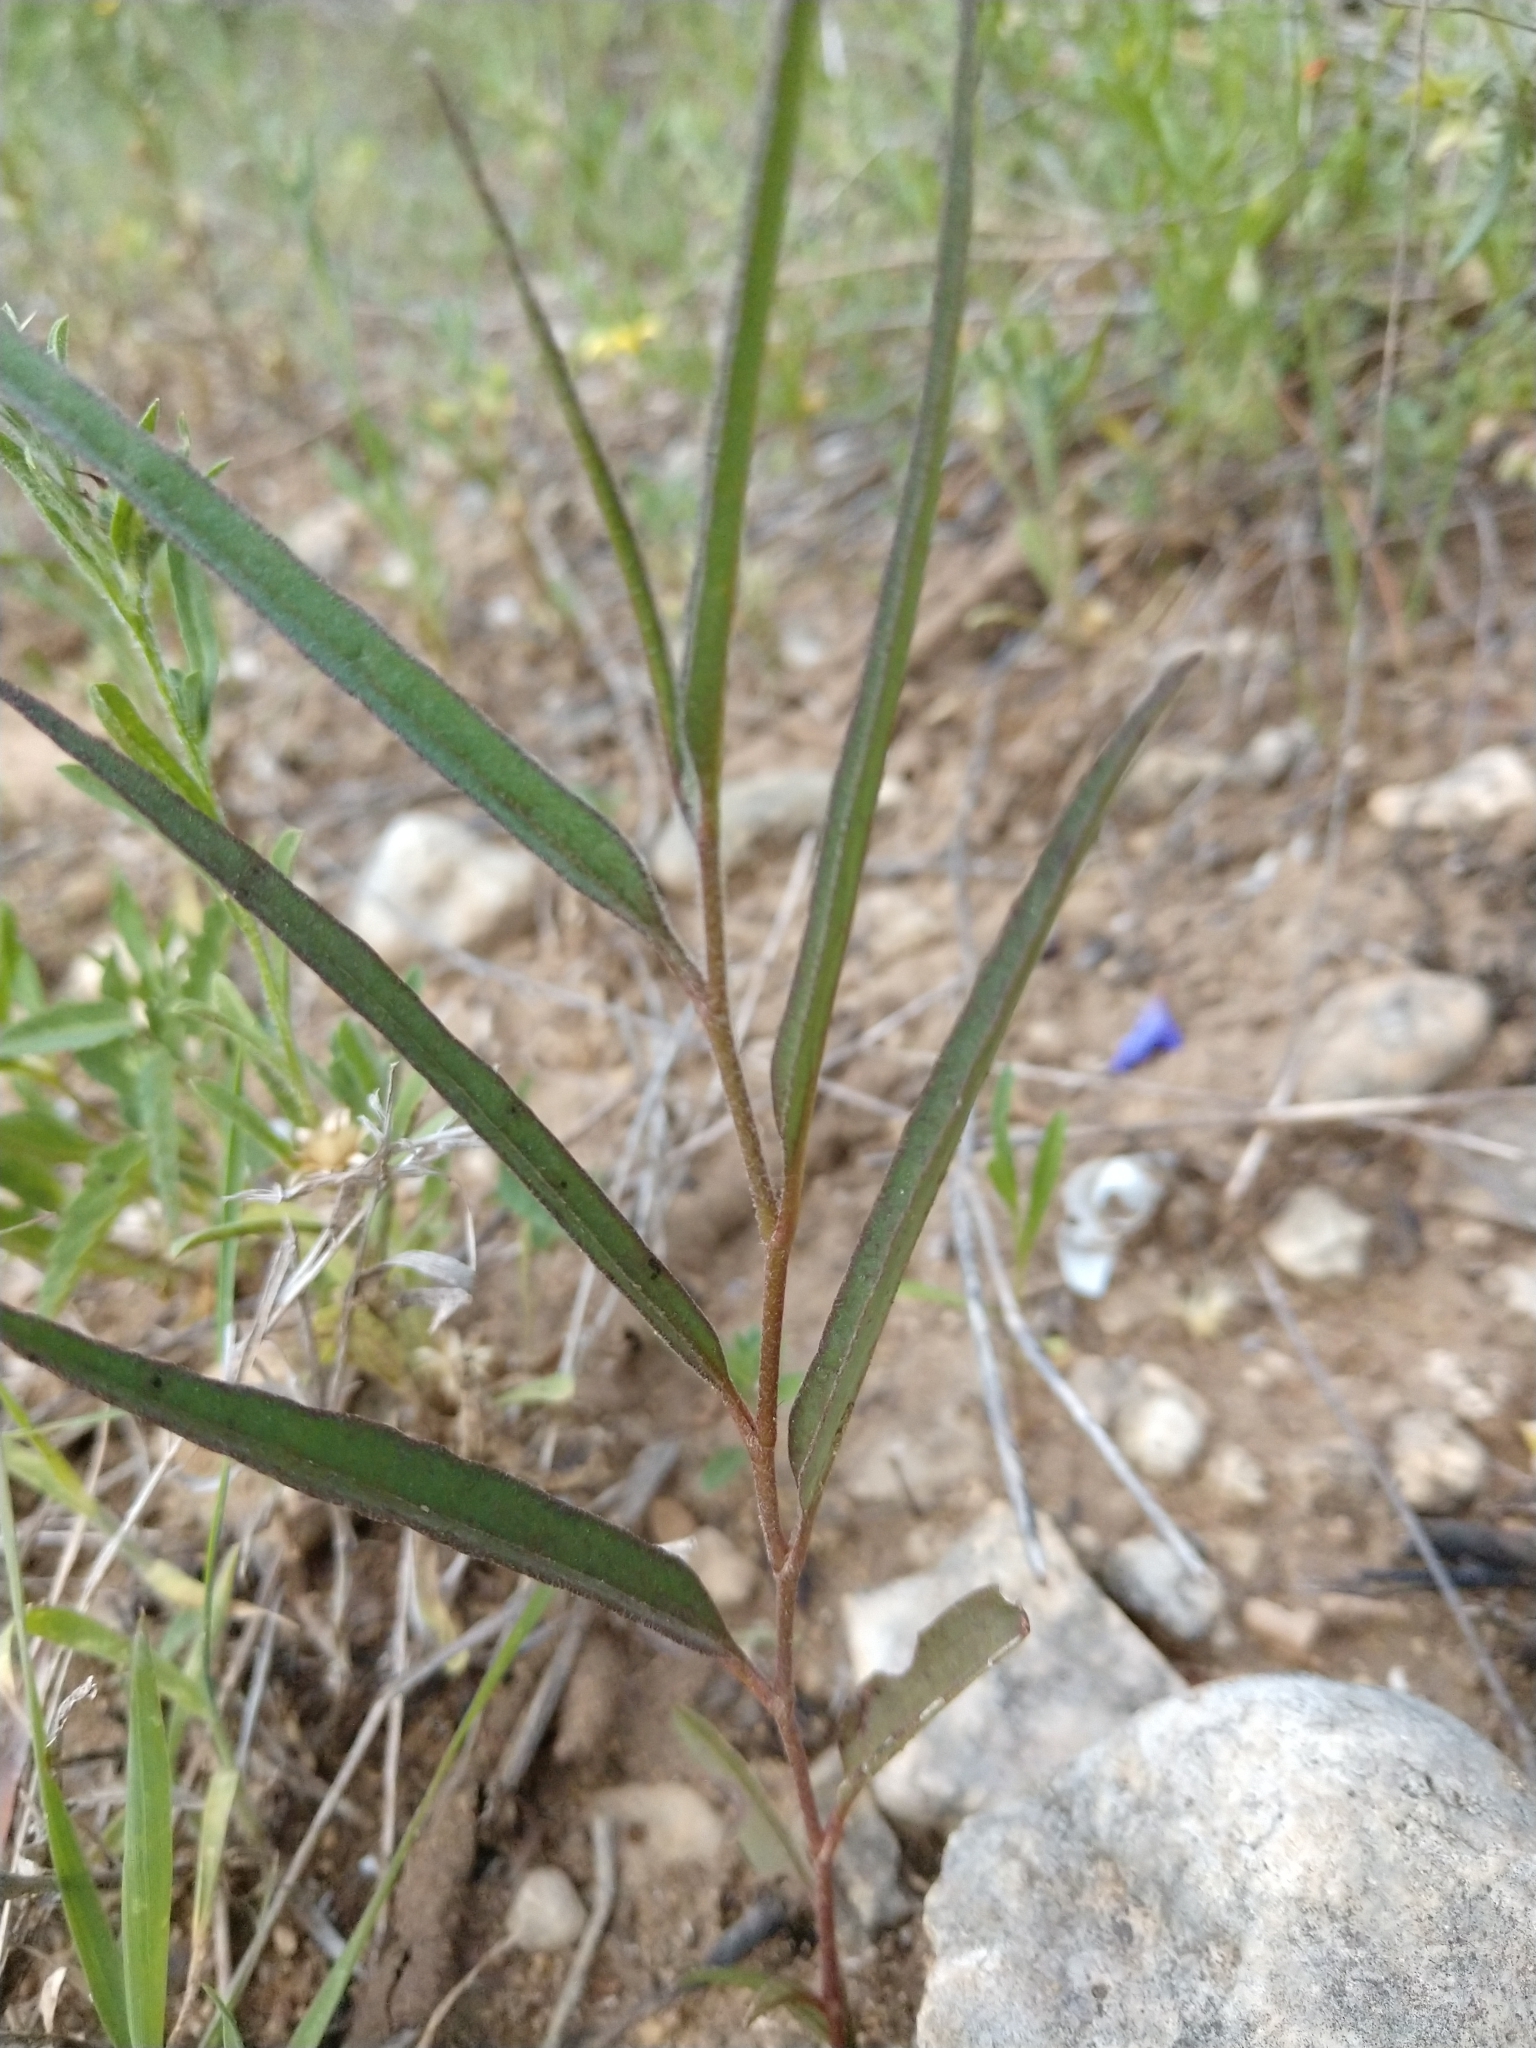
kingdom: Plantae
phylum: Tracheophyta
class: Magnoliopsida
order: Piperales
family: Aristolochiaceae
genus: Aristolochia
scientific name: Aristolochia erecta
